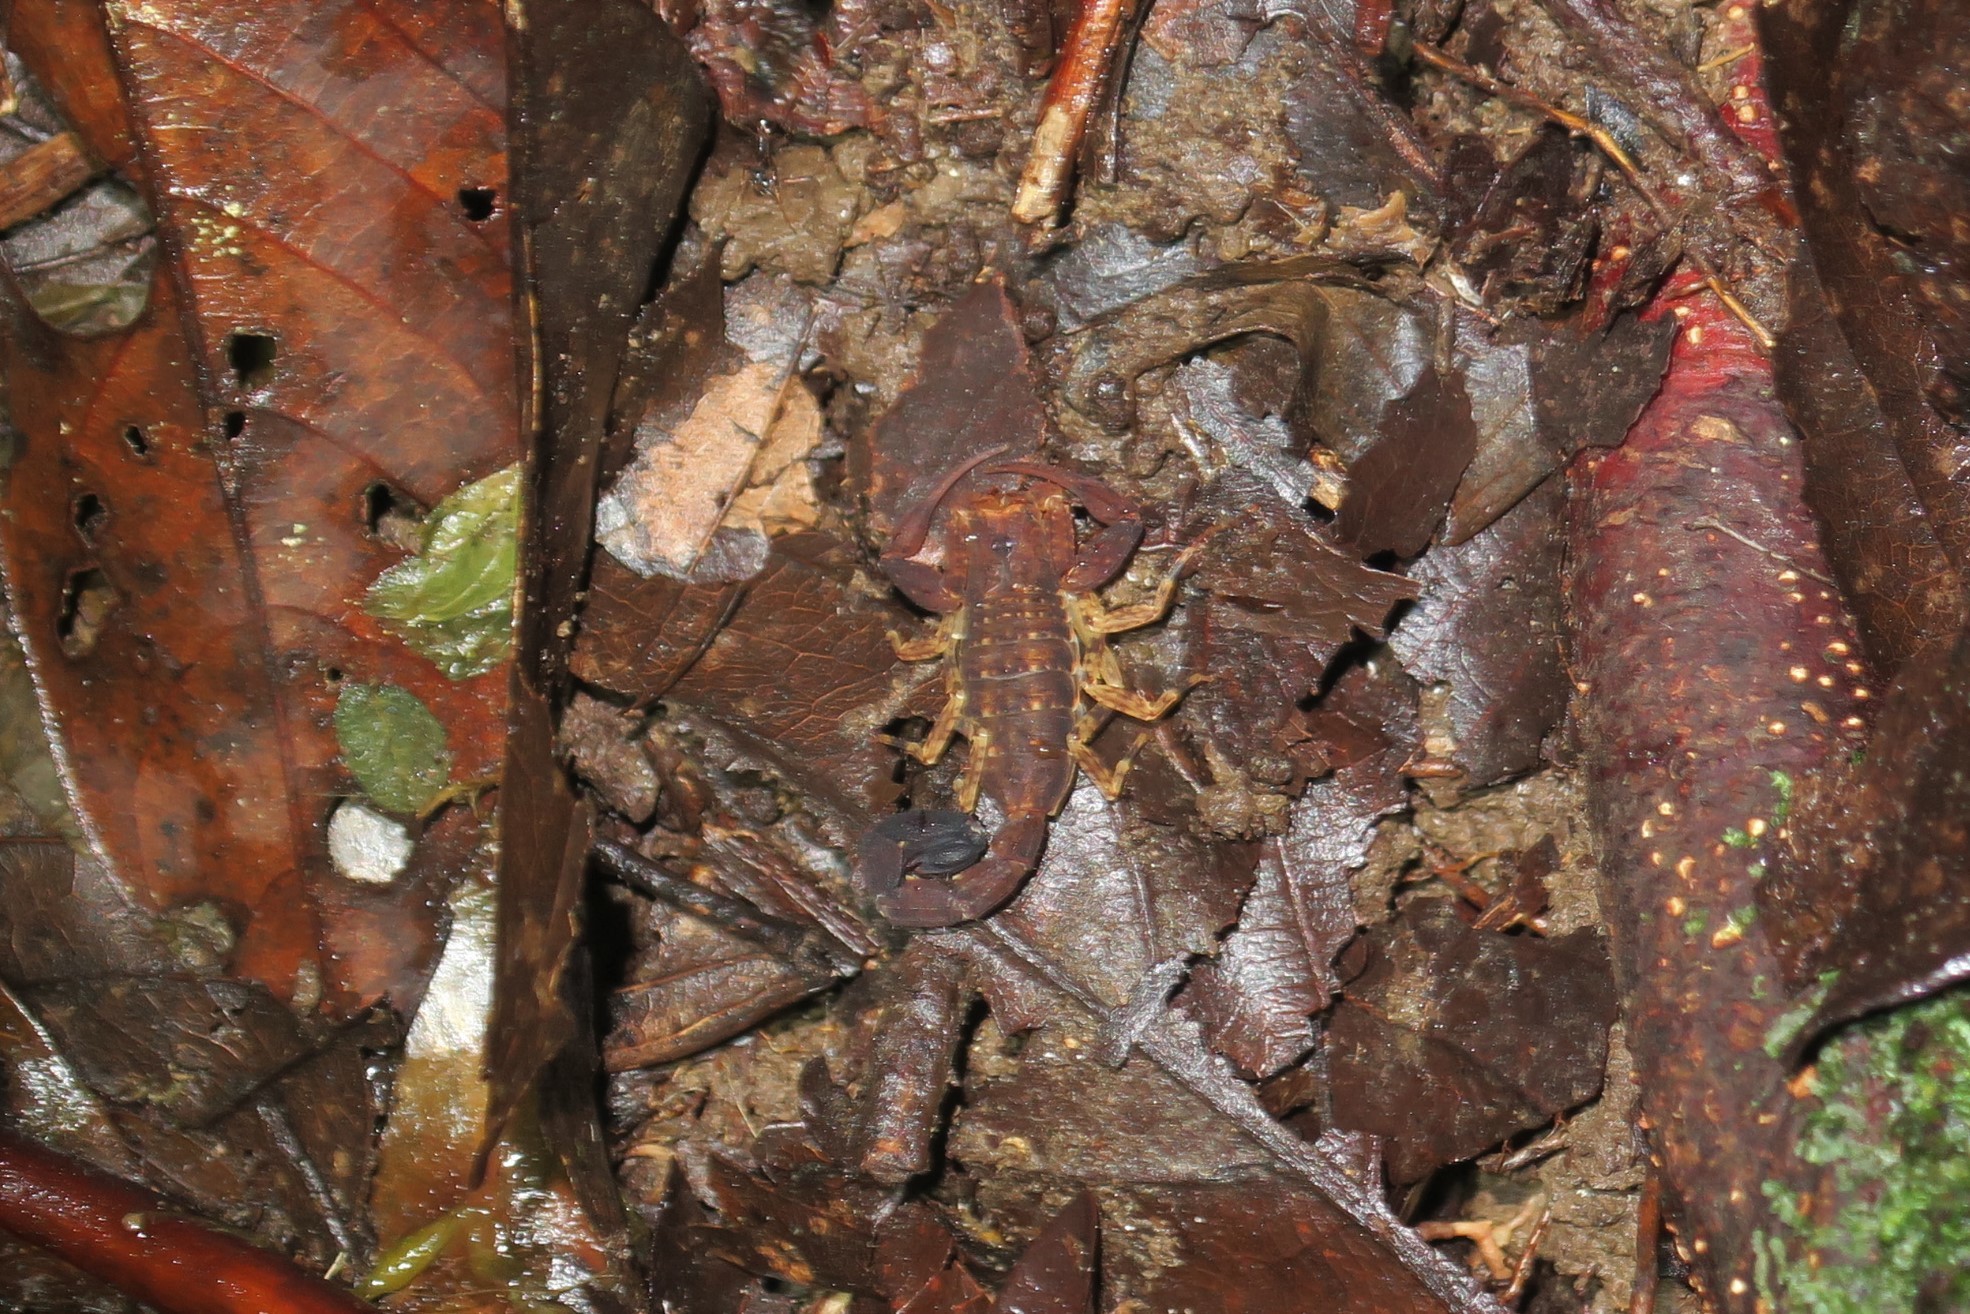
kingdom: Animalia
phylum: Arthropoda
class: Arachnida
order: Scorpiones
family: Buthidae
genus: Tityus
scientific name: Tityus bastosi
